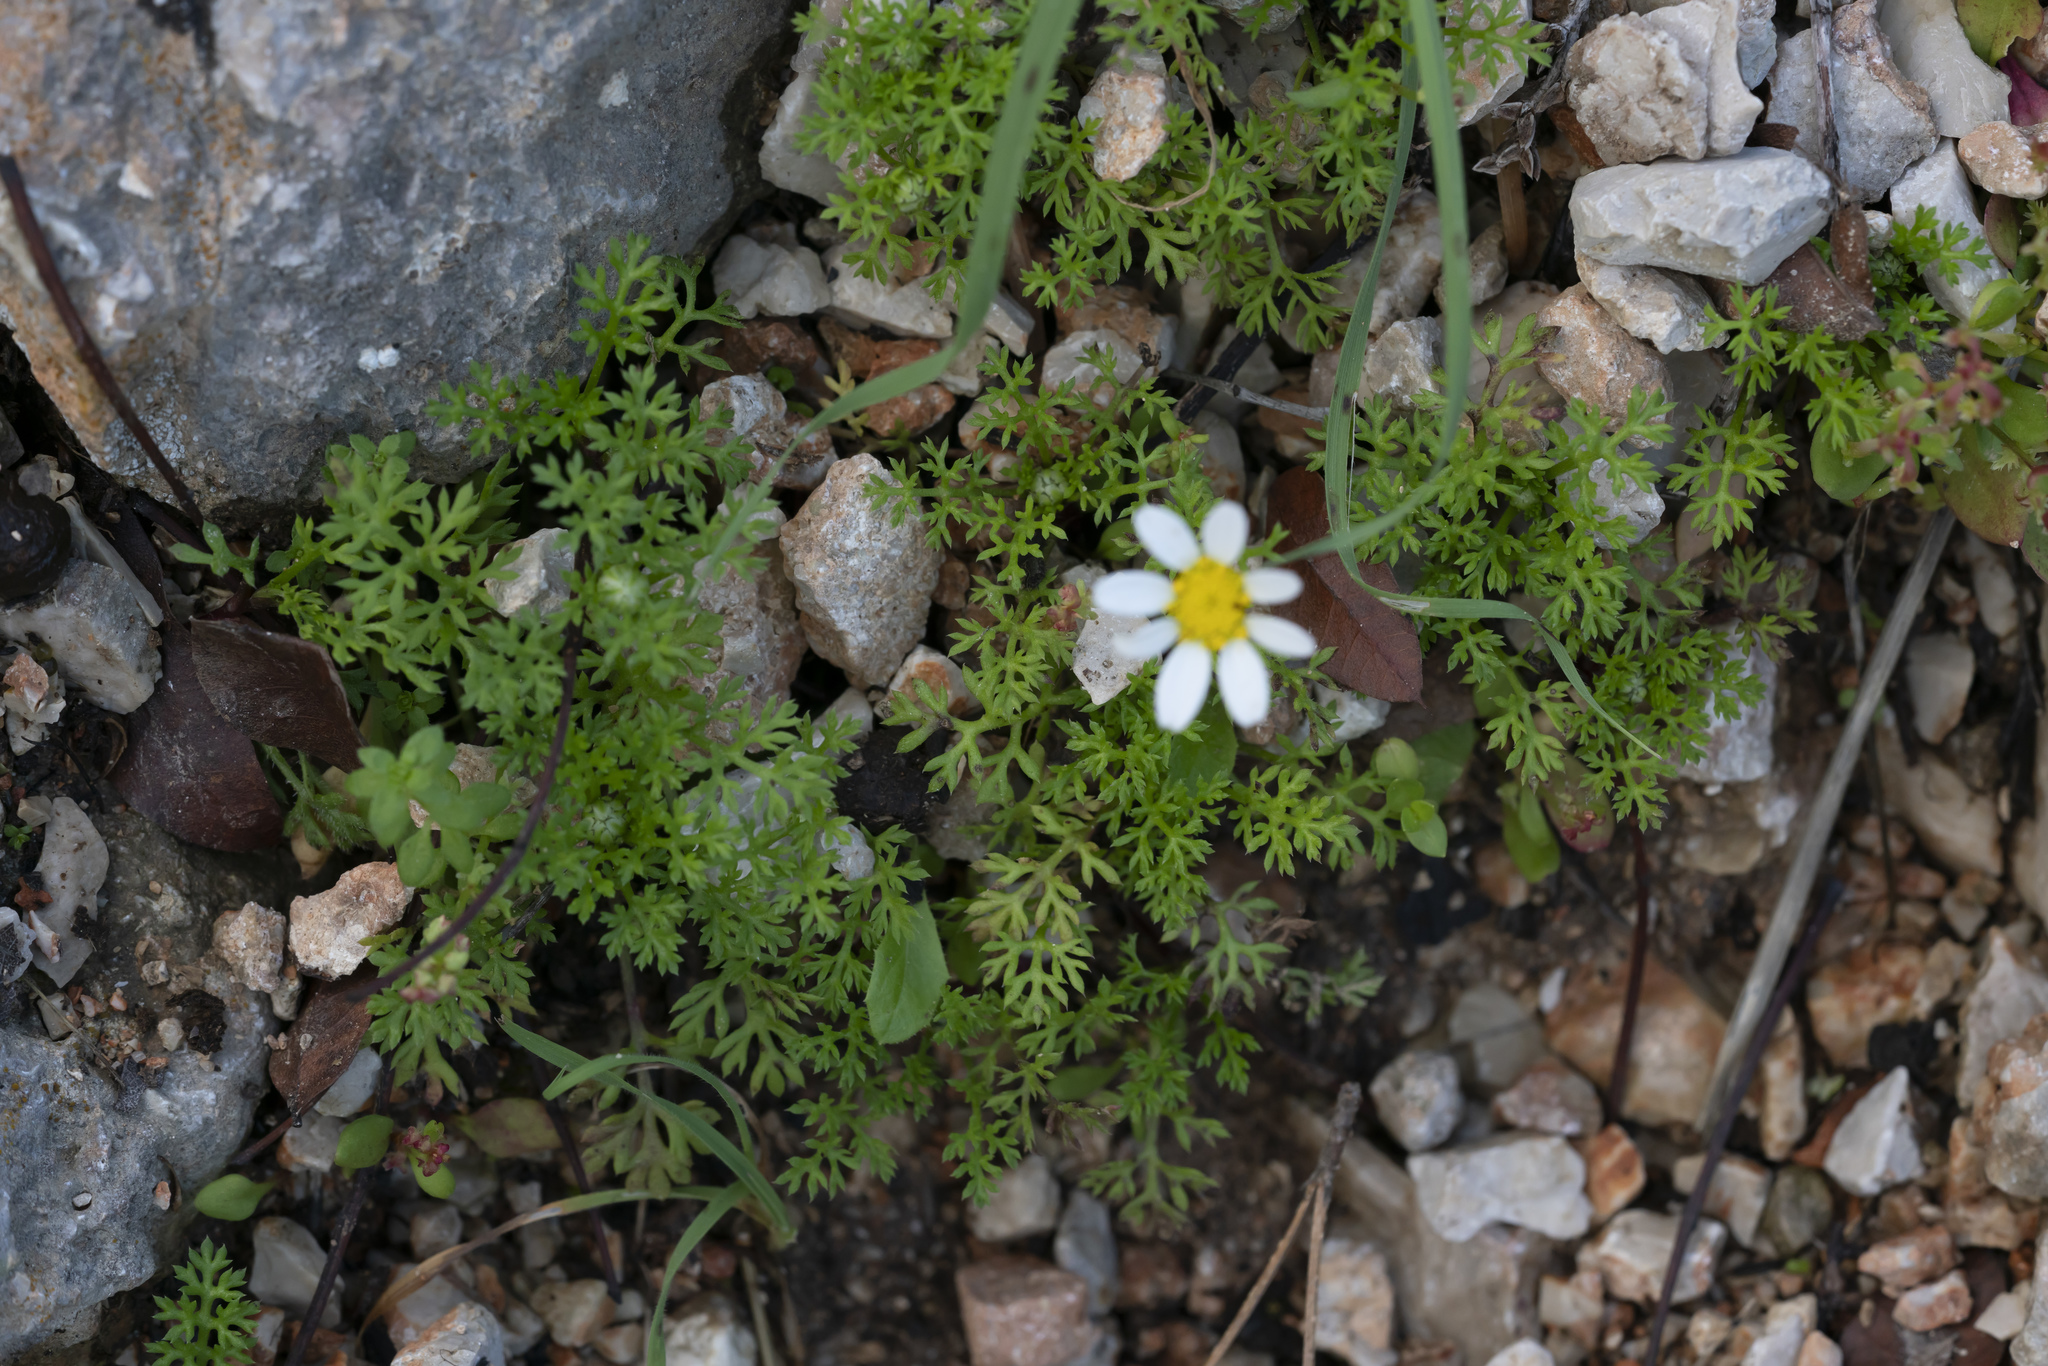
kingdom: Plantae
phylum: Tracheophyta
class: Magnoliopsida
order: Asterales
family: Asteraceae
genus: Anthemis
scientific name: Anthemis
